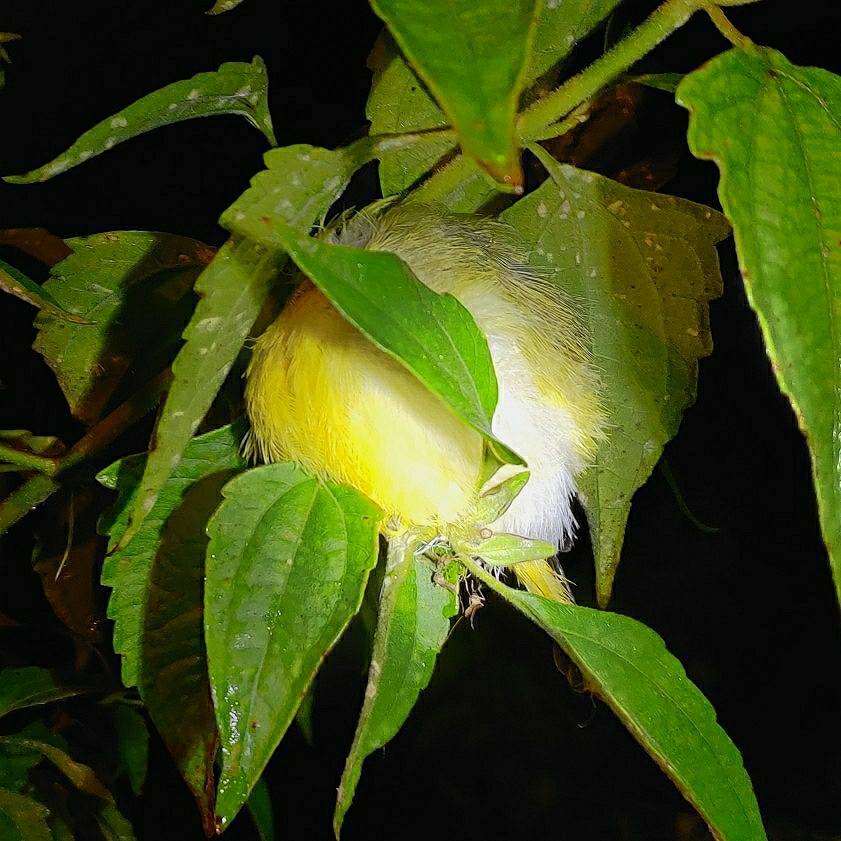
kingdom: Animalia
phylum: Chordata
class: Aves
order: Passeriformes
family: Aegithinidae
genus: Aegithina
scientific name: Aegithina tiphia
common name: Common iora
